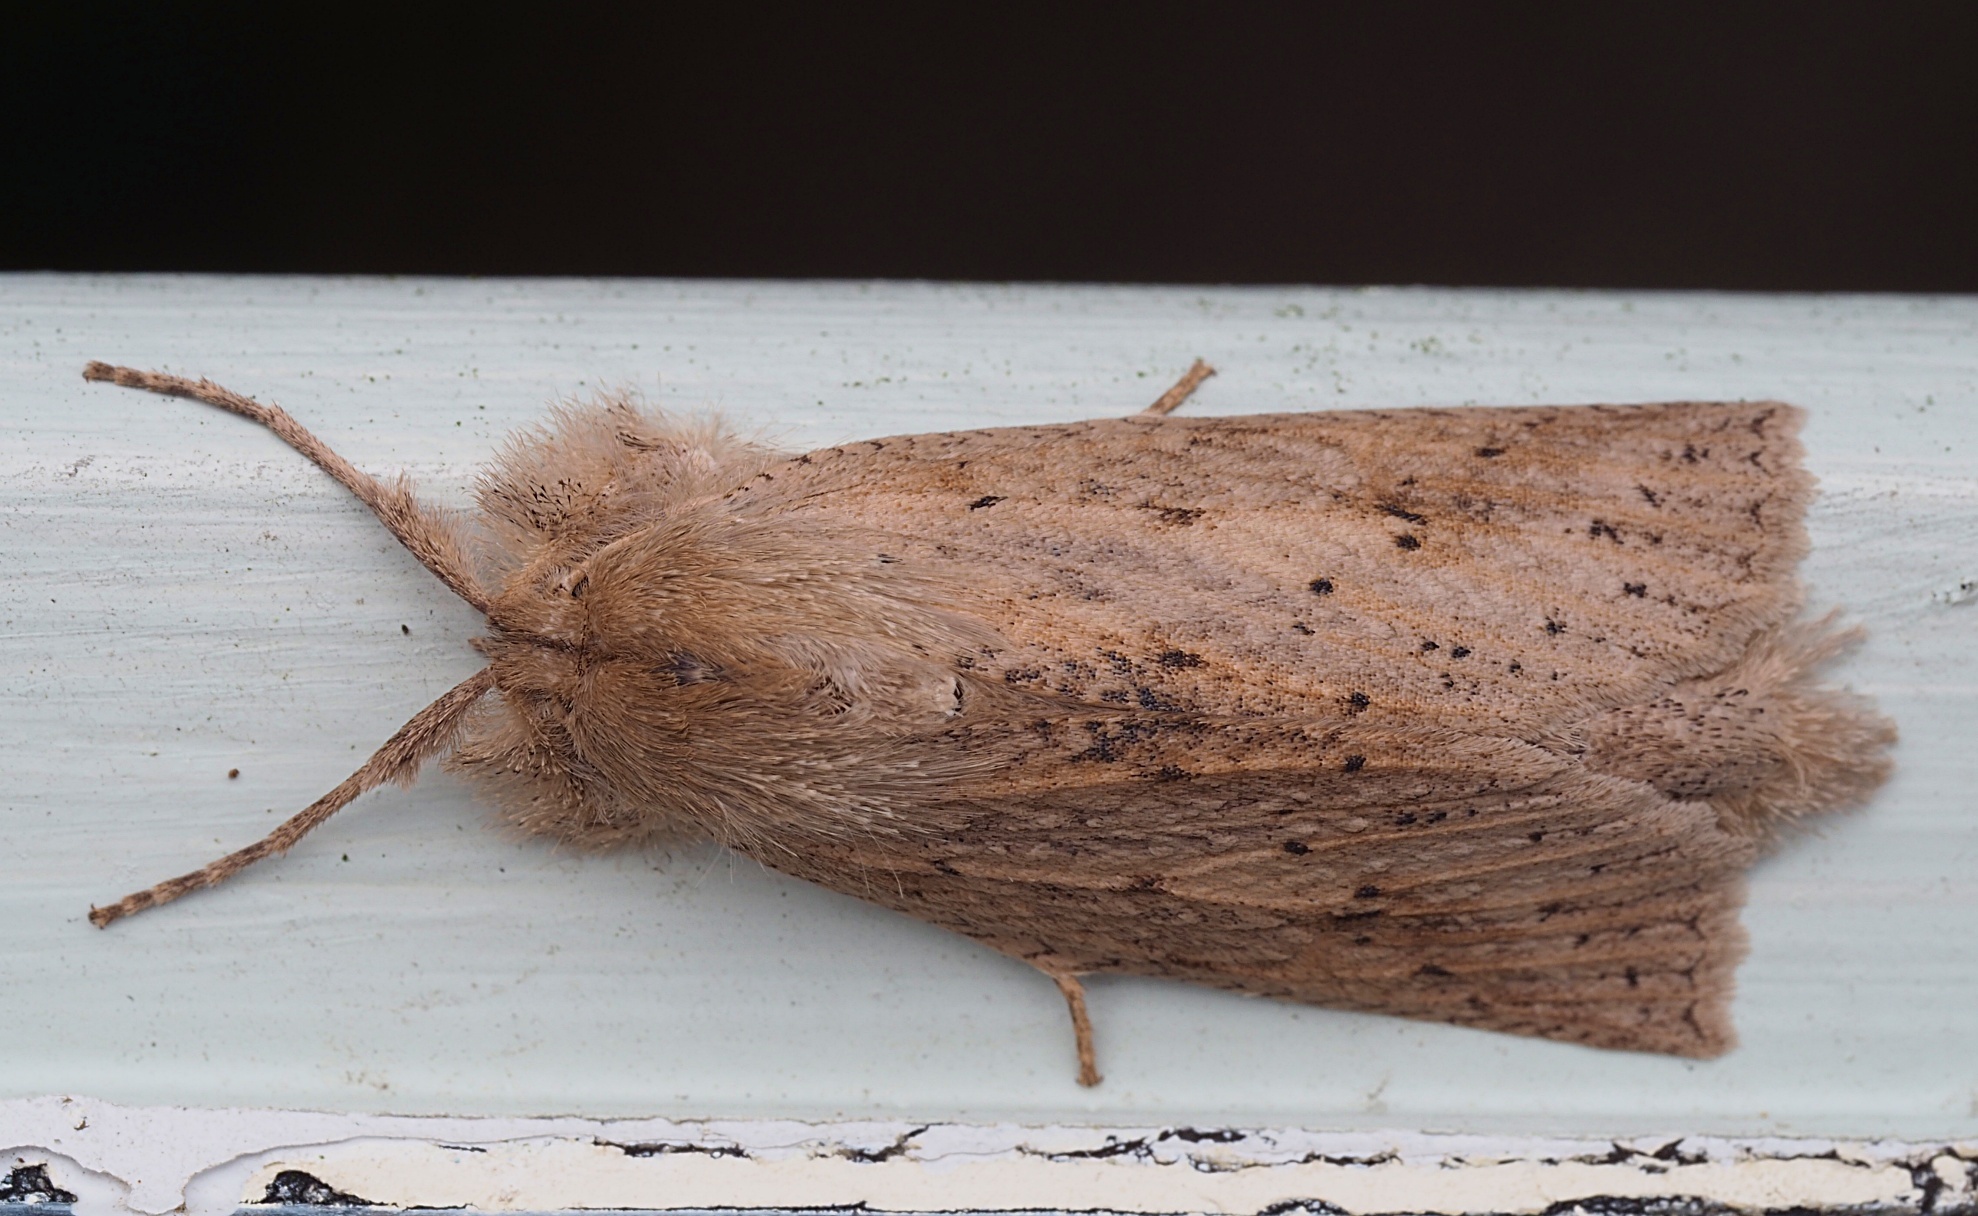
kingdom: Animalia
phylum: Arthropoda
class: Insecta
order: Lepidoptera
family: Geometridae
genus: Declana
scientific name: Declana leptomera
